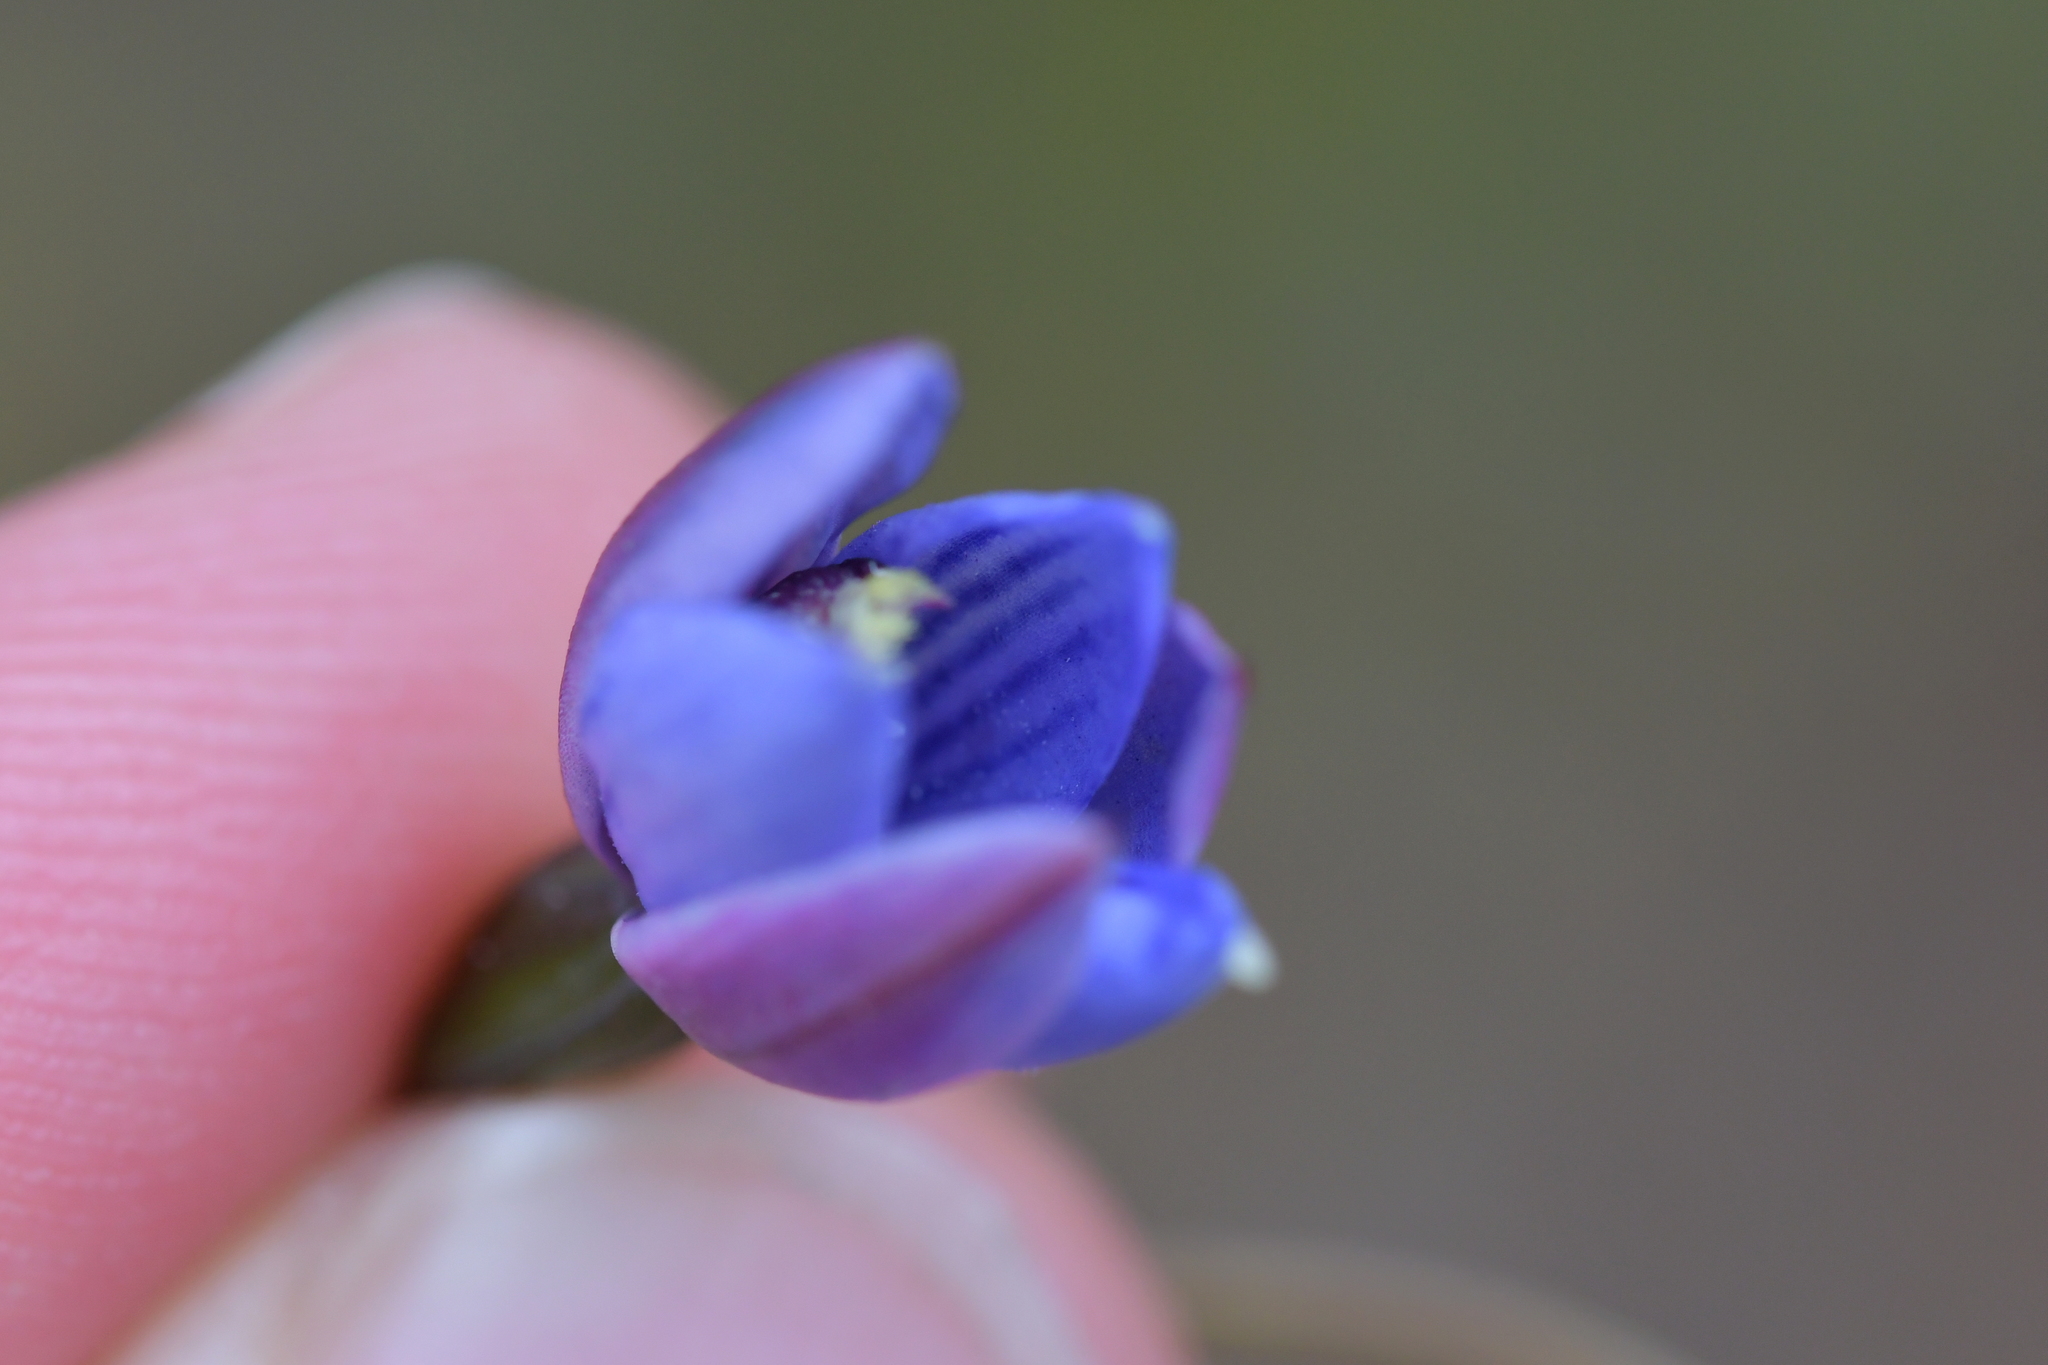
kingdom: Plantae
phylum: Tracheophyta
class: Liliopsida
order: Asparagales
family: Orchidaceae
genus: Thelymitra
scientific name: Thelymitra pulchella
